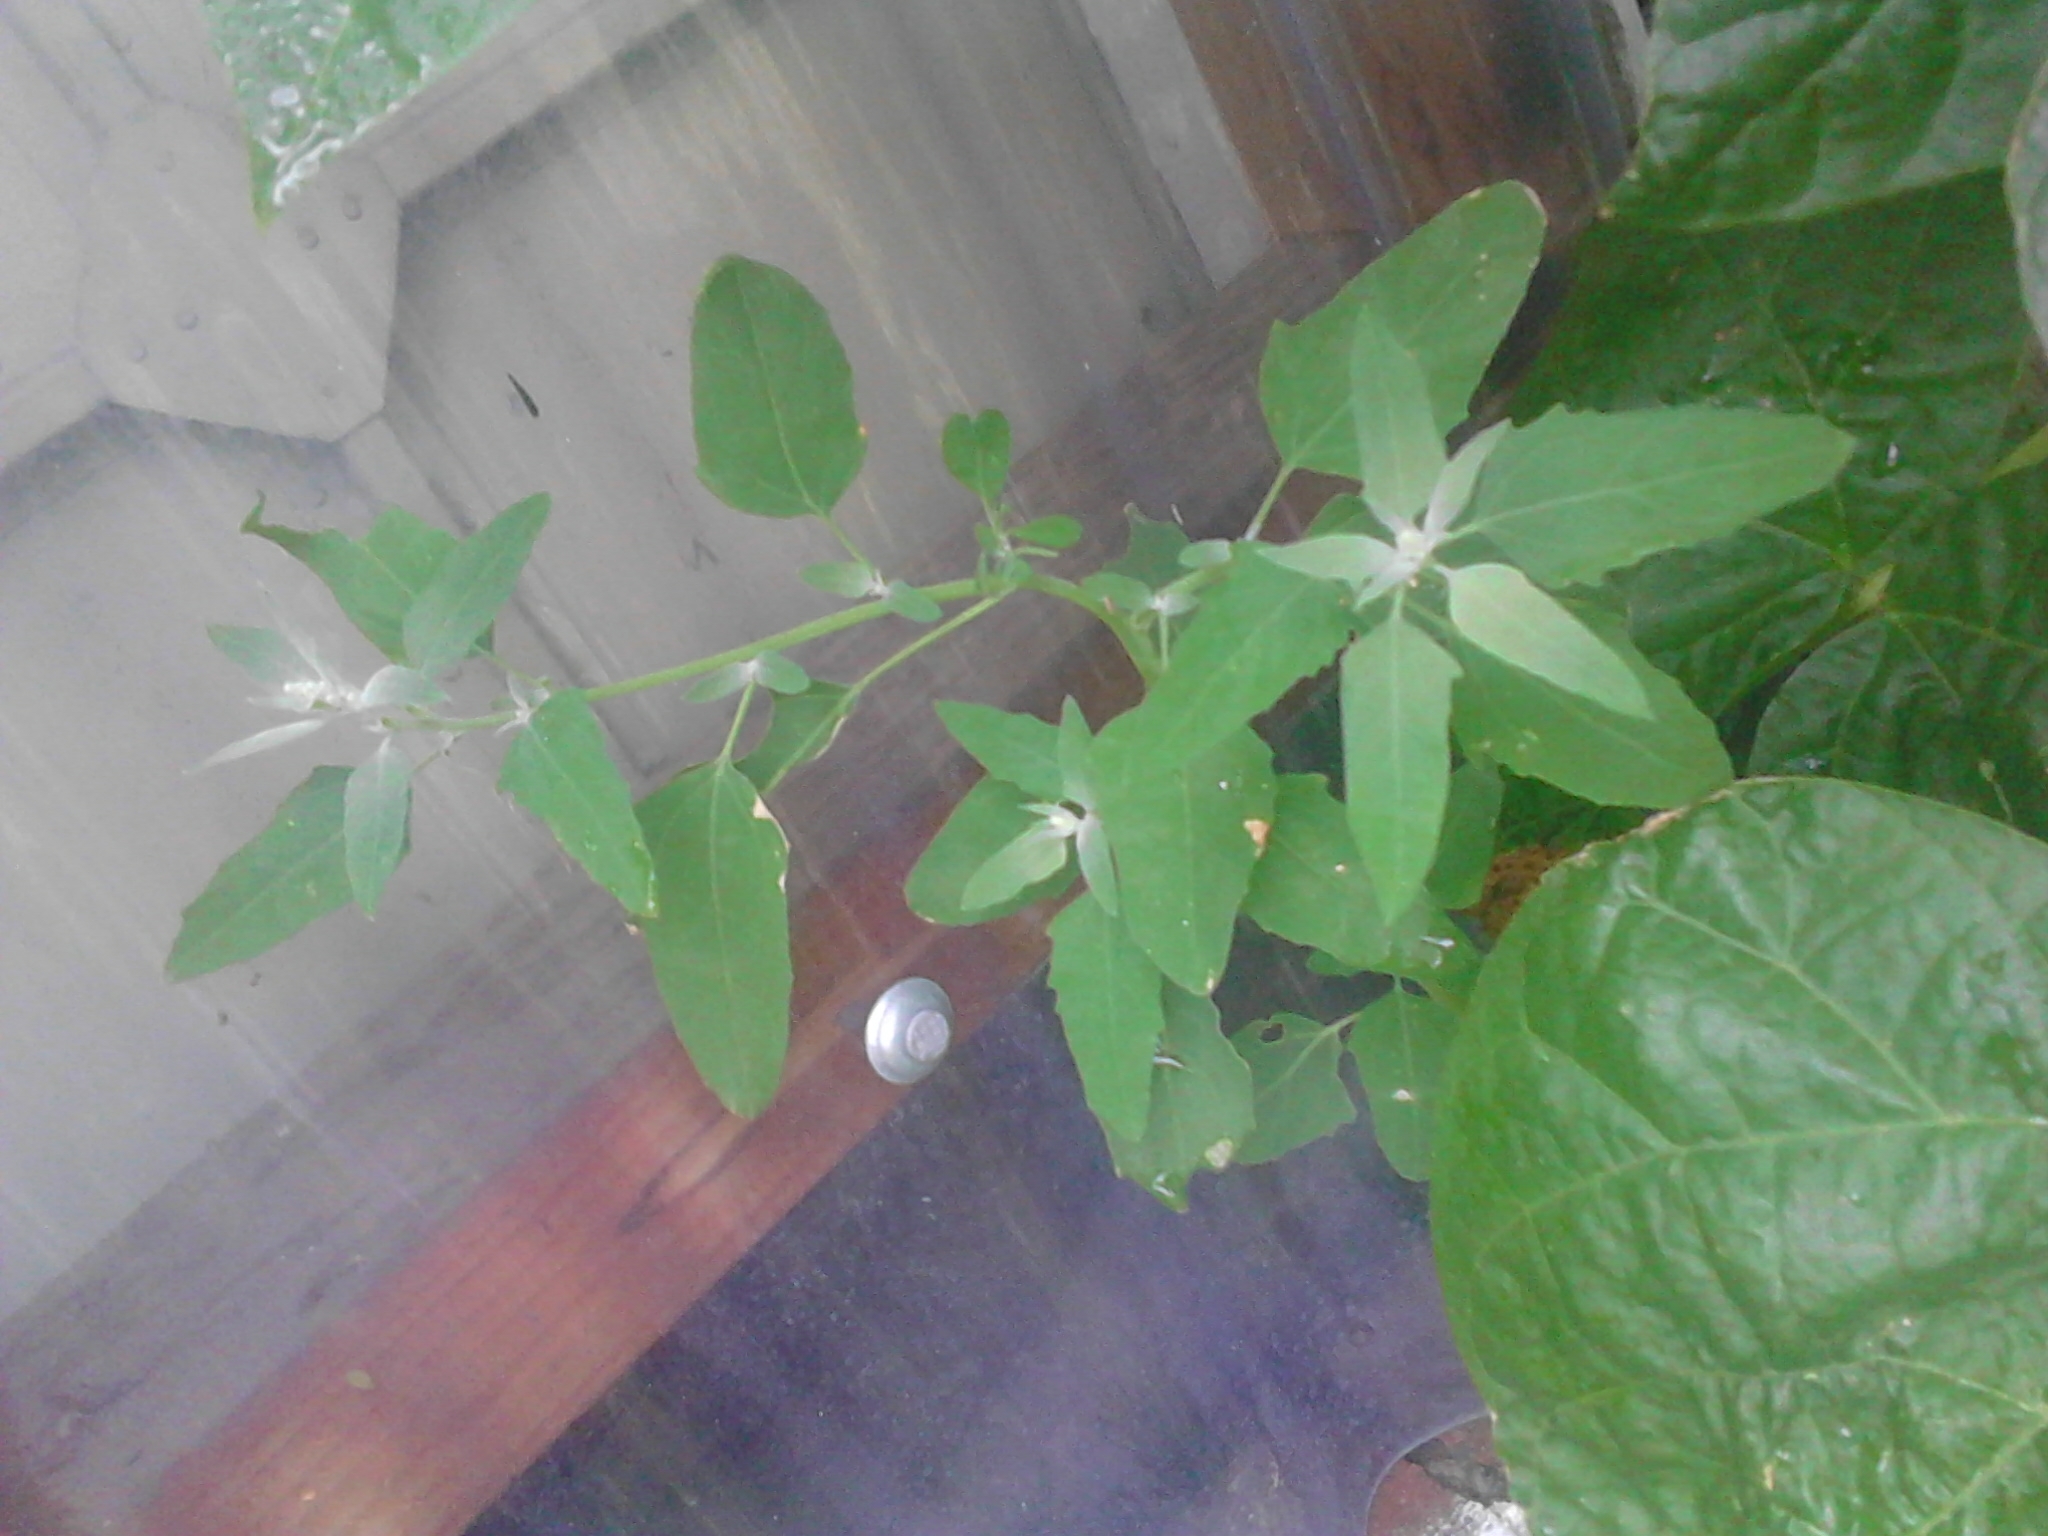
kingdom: Plantae
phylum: Tracheophyta
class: Magnoliopsida
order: Caryophyllales
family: Amaranthaceae
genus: Chenopodium
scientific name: Chenopodium album
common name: Fat-hen
